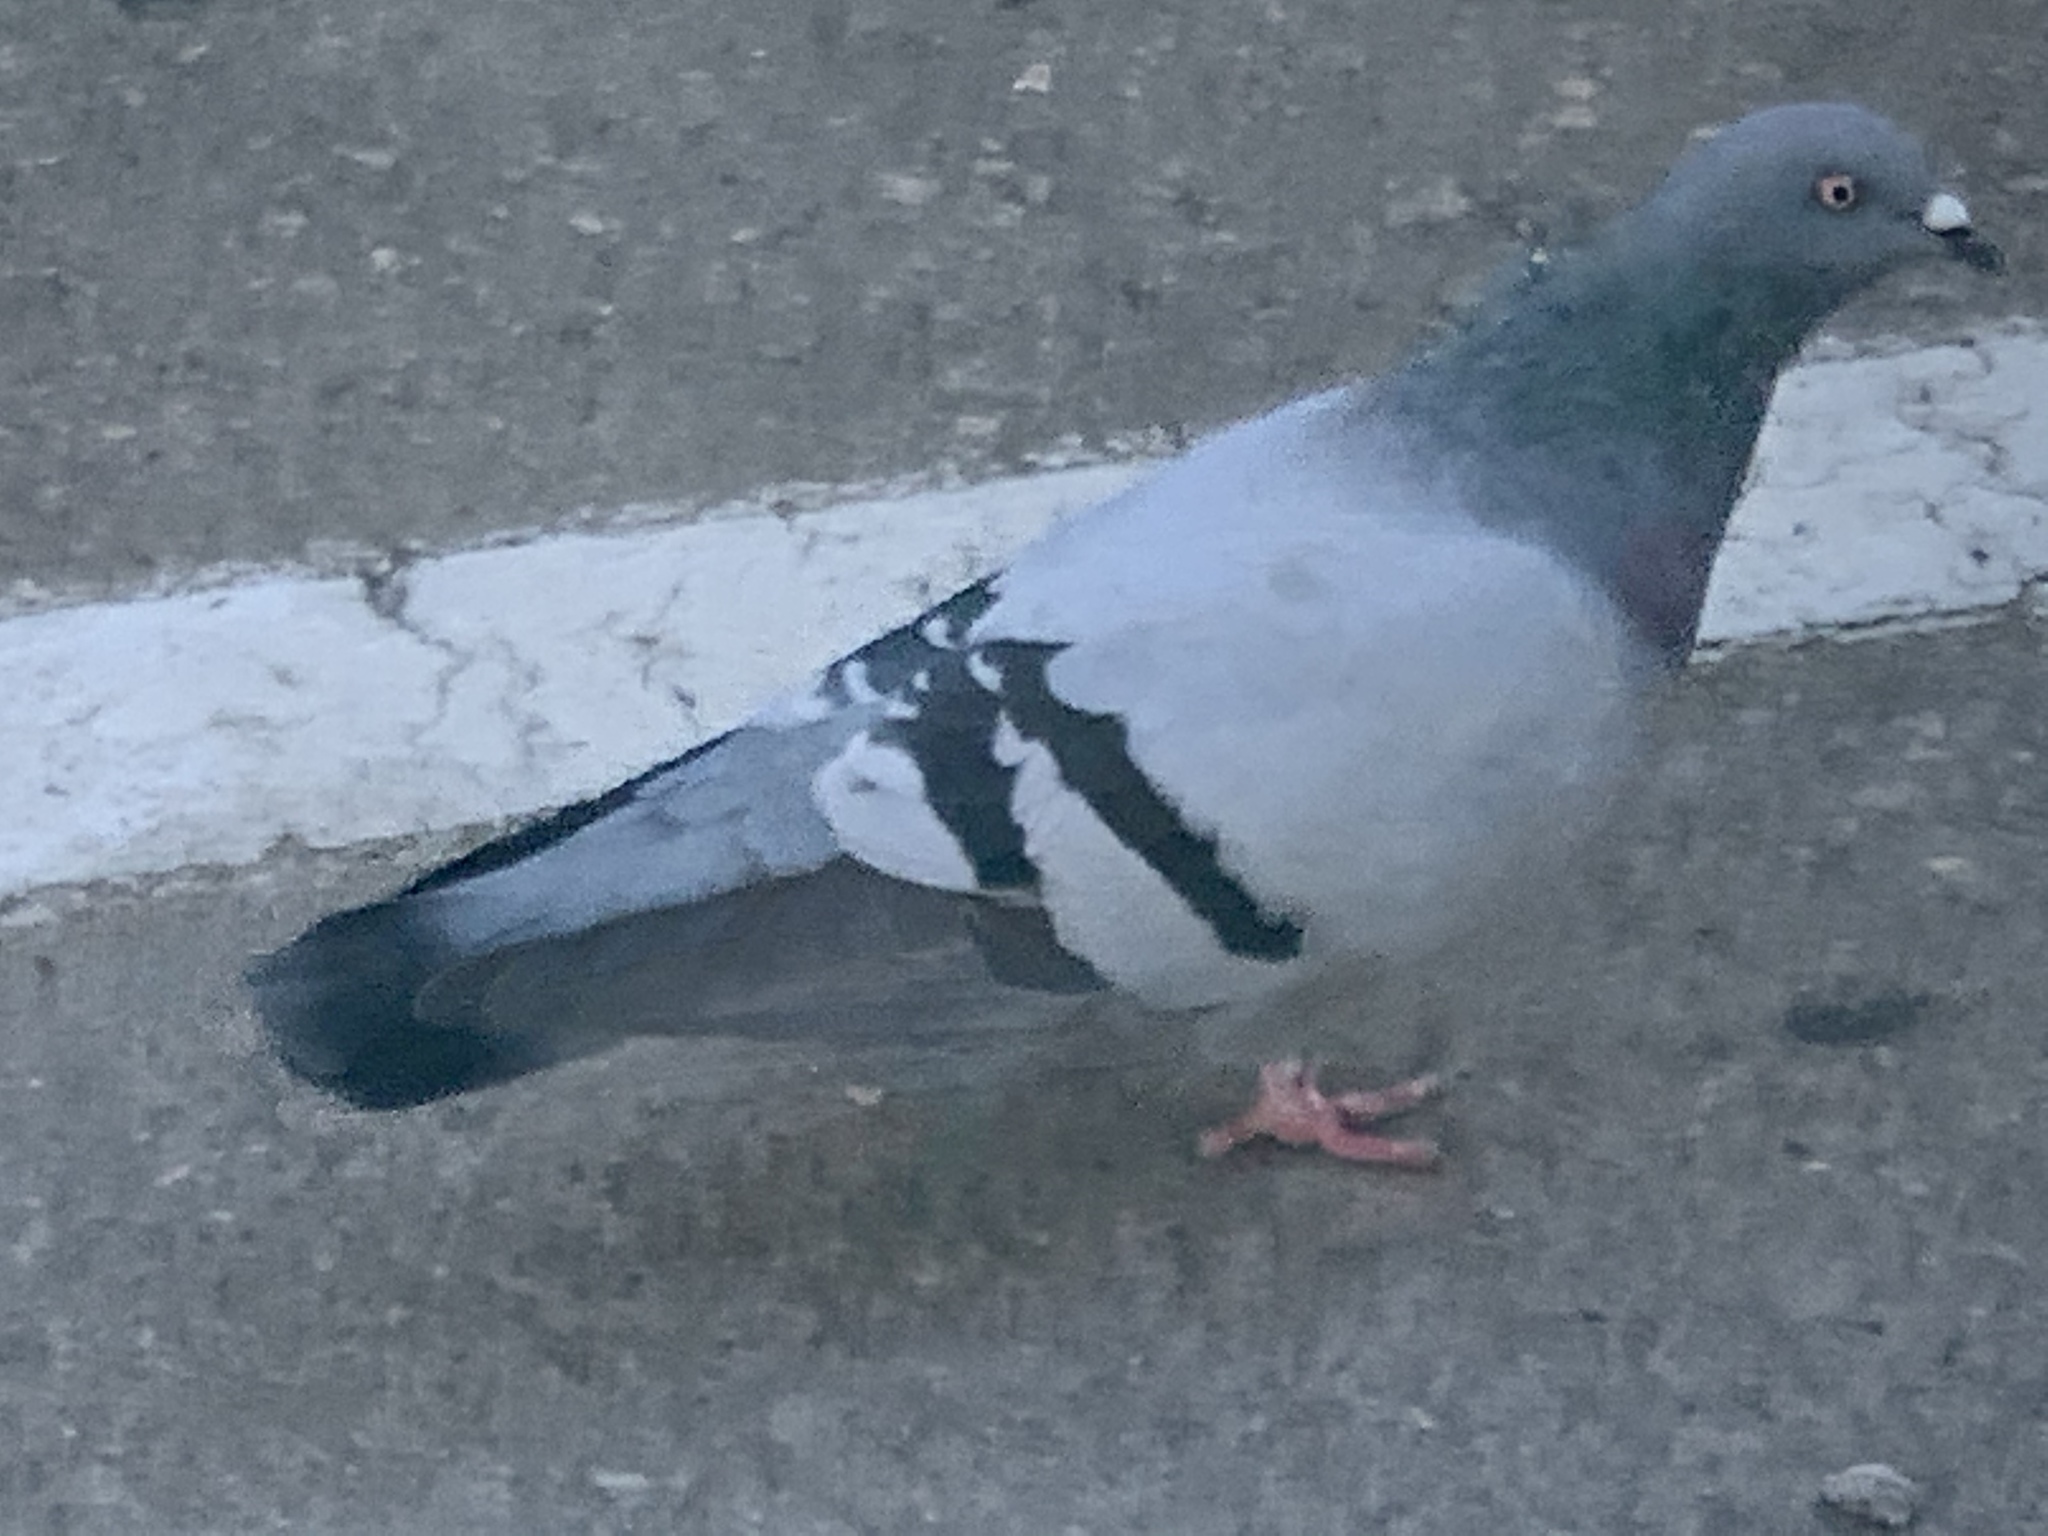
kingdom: Animalia
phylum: Chordata
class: Aves
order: Columbiformes
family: Columbidae
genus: Columba
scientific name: Columba livia
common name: Rock pigeon
